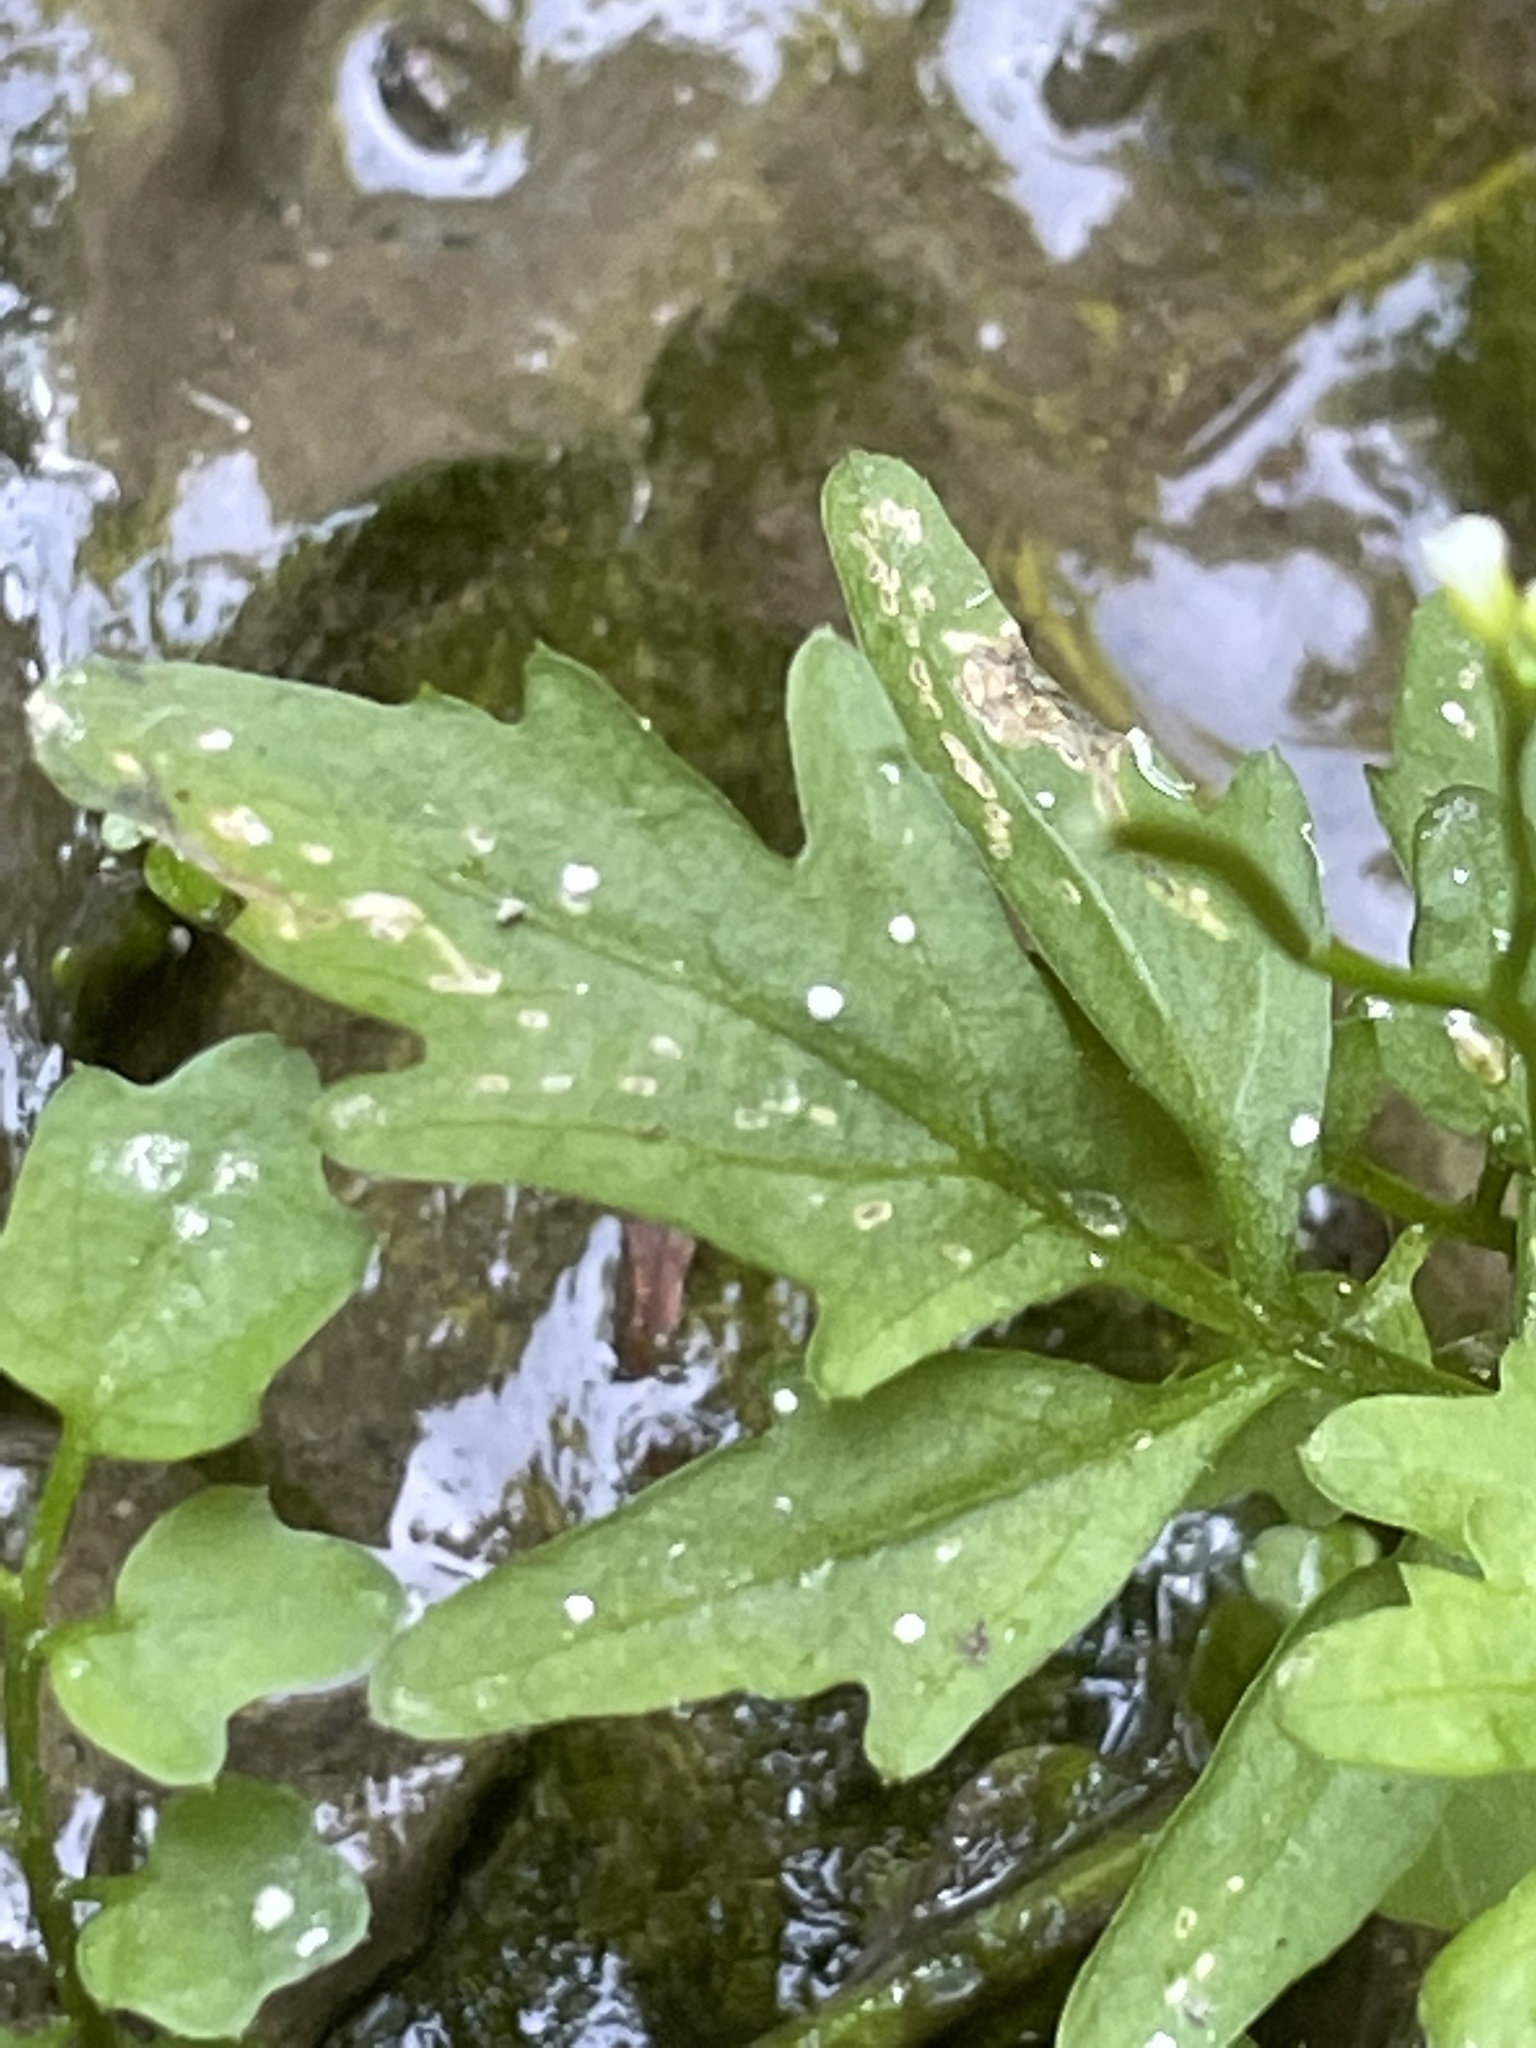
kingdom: Plantae
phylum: Tracheophyta
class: Magnoliopsida
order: Brassicales
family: Brassicaceae
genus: Cardamine
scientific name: Cardamine pensylvanica
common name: Pennsylvania bittercress
